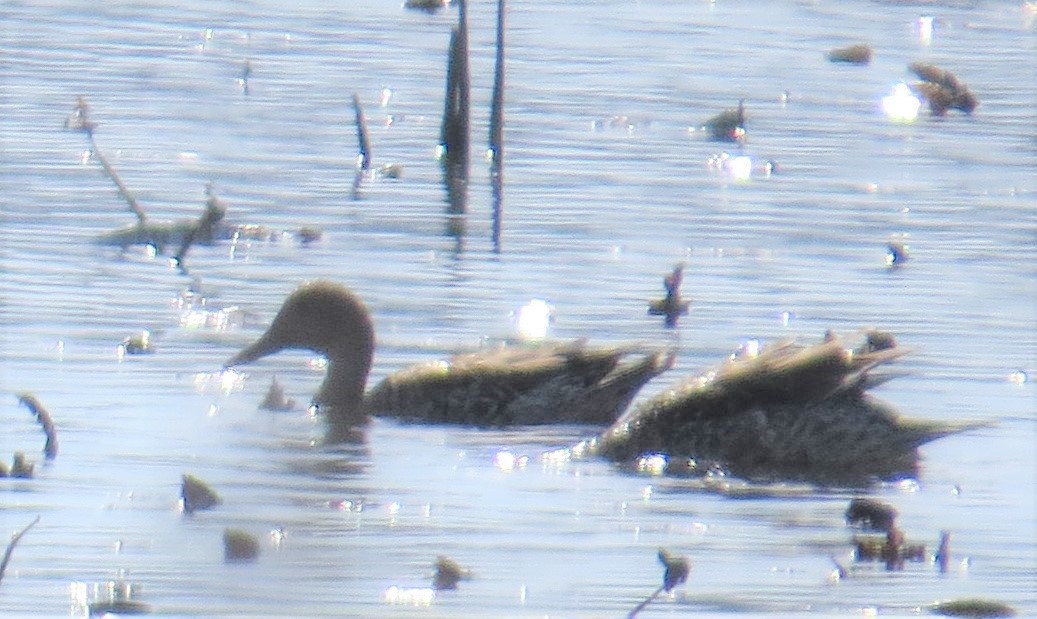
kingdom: Animalia
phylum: Chordata
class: Aves
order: Anseriformes
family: Anatidae
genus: Anas
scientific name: Anas acuta
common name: Northern pintail
